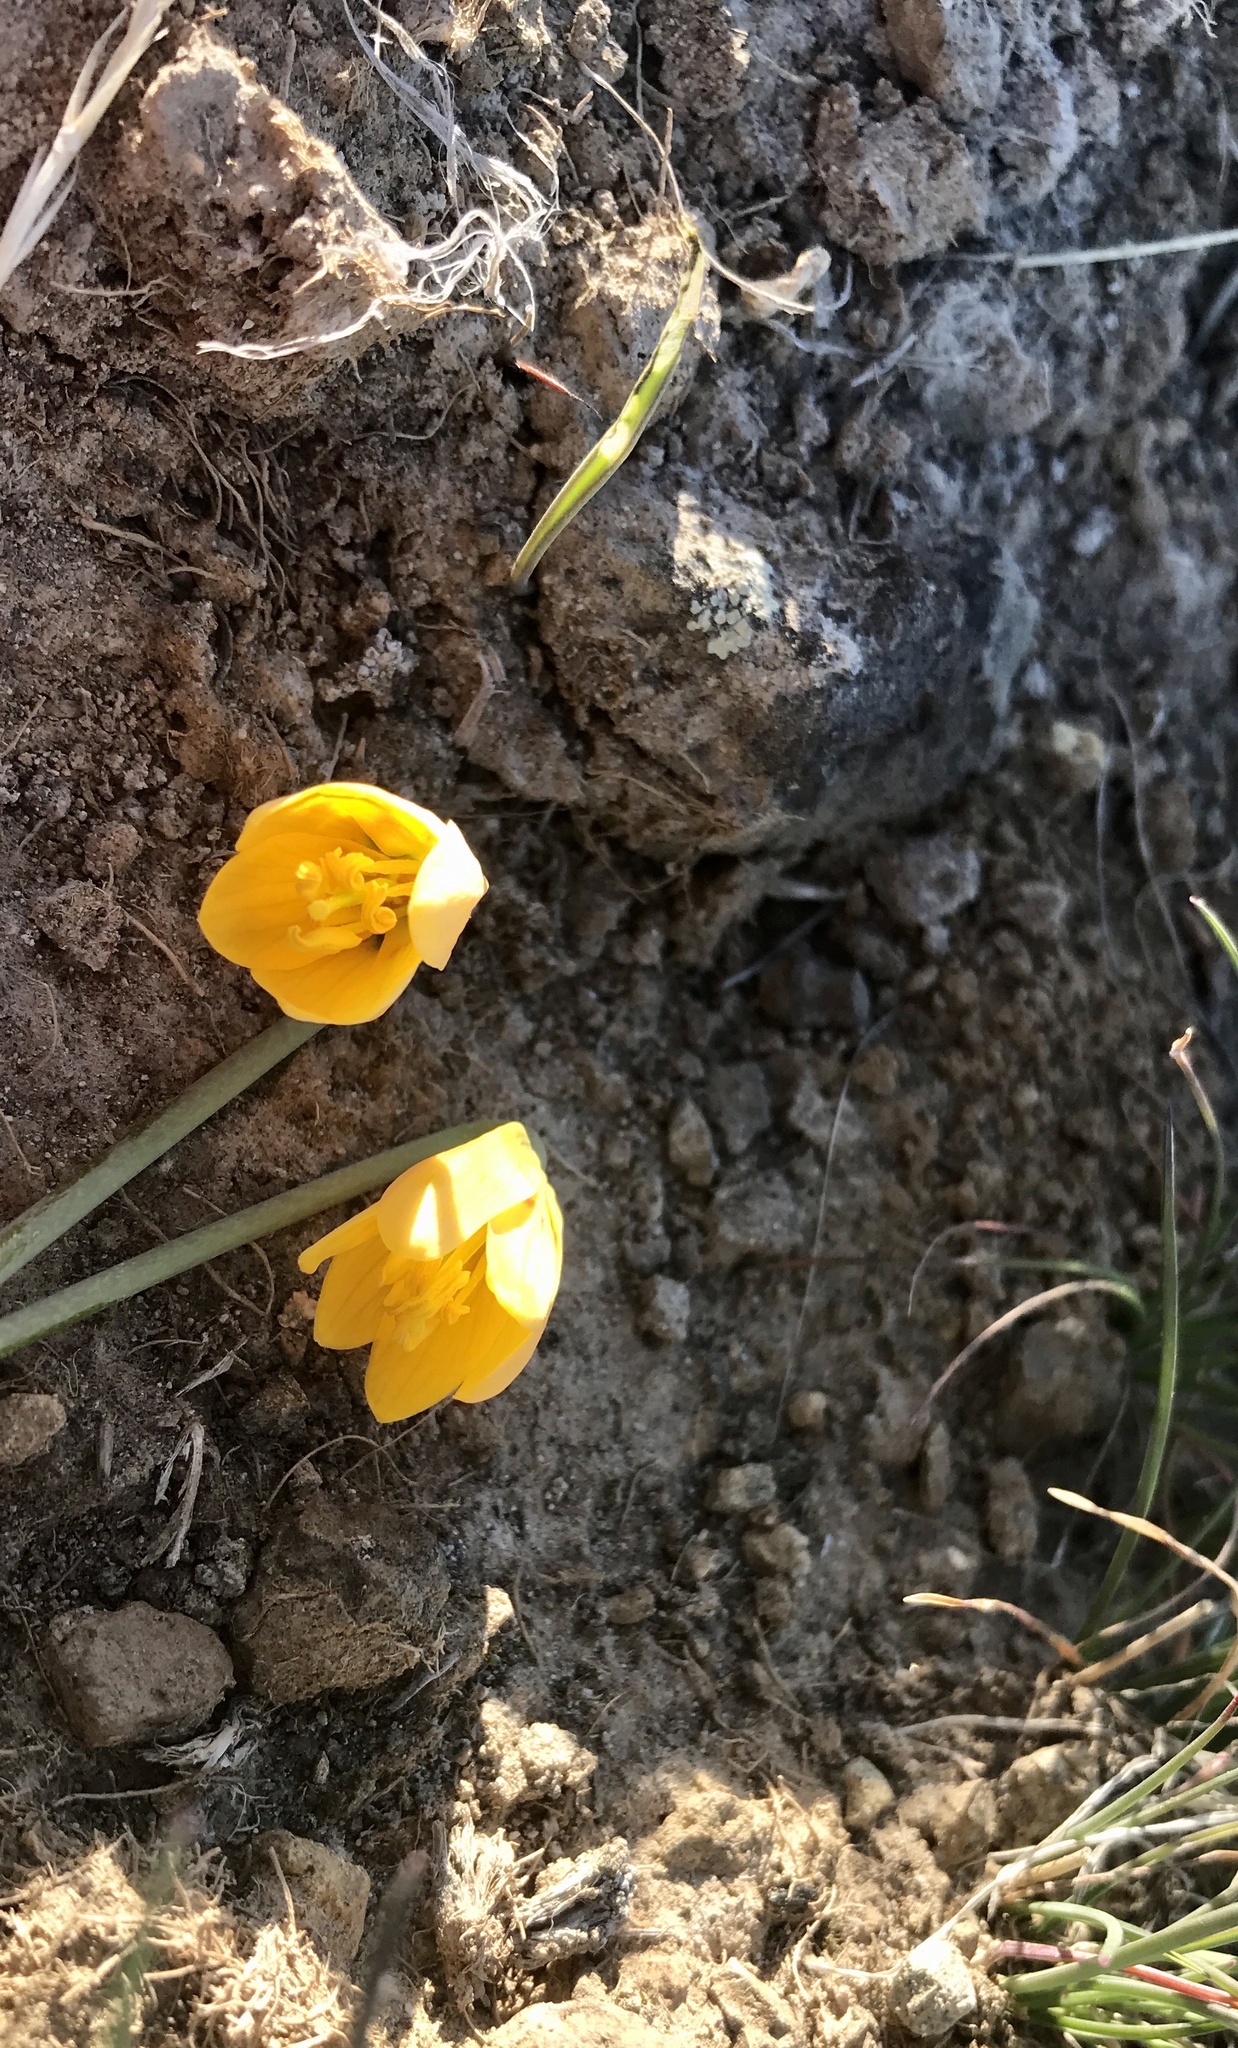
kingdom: Plantae
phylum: Tracheophyta
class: Liliopsida
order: Liliales
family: Liliaceae
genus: Fritillaria
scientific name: Fritillaria pudica
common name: Yellow fritillary
